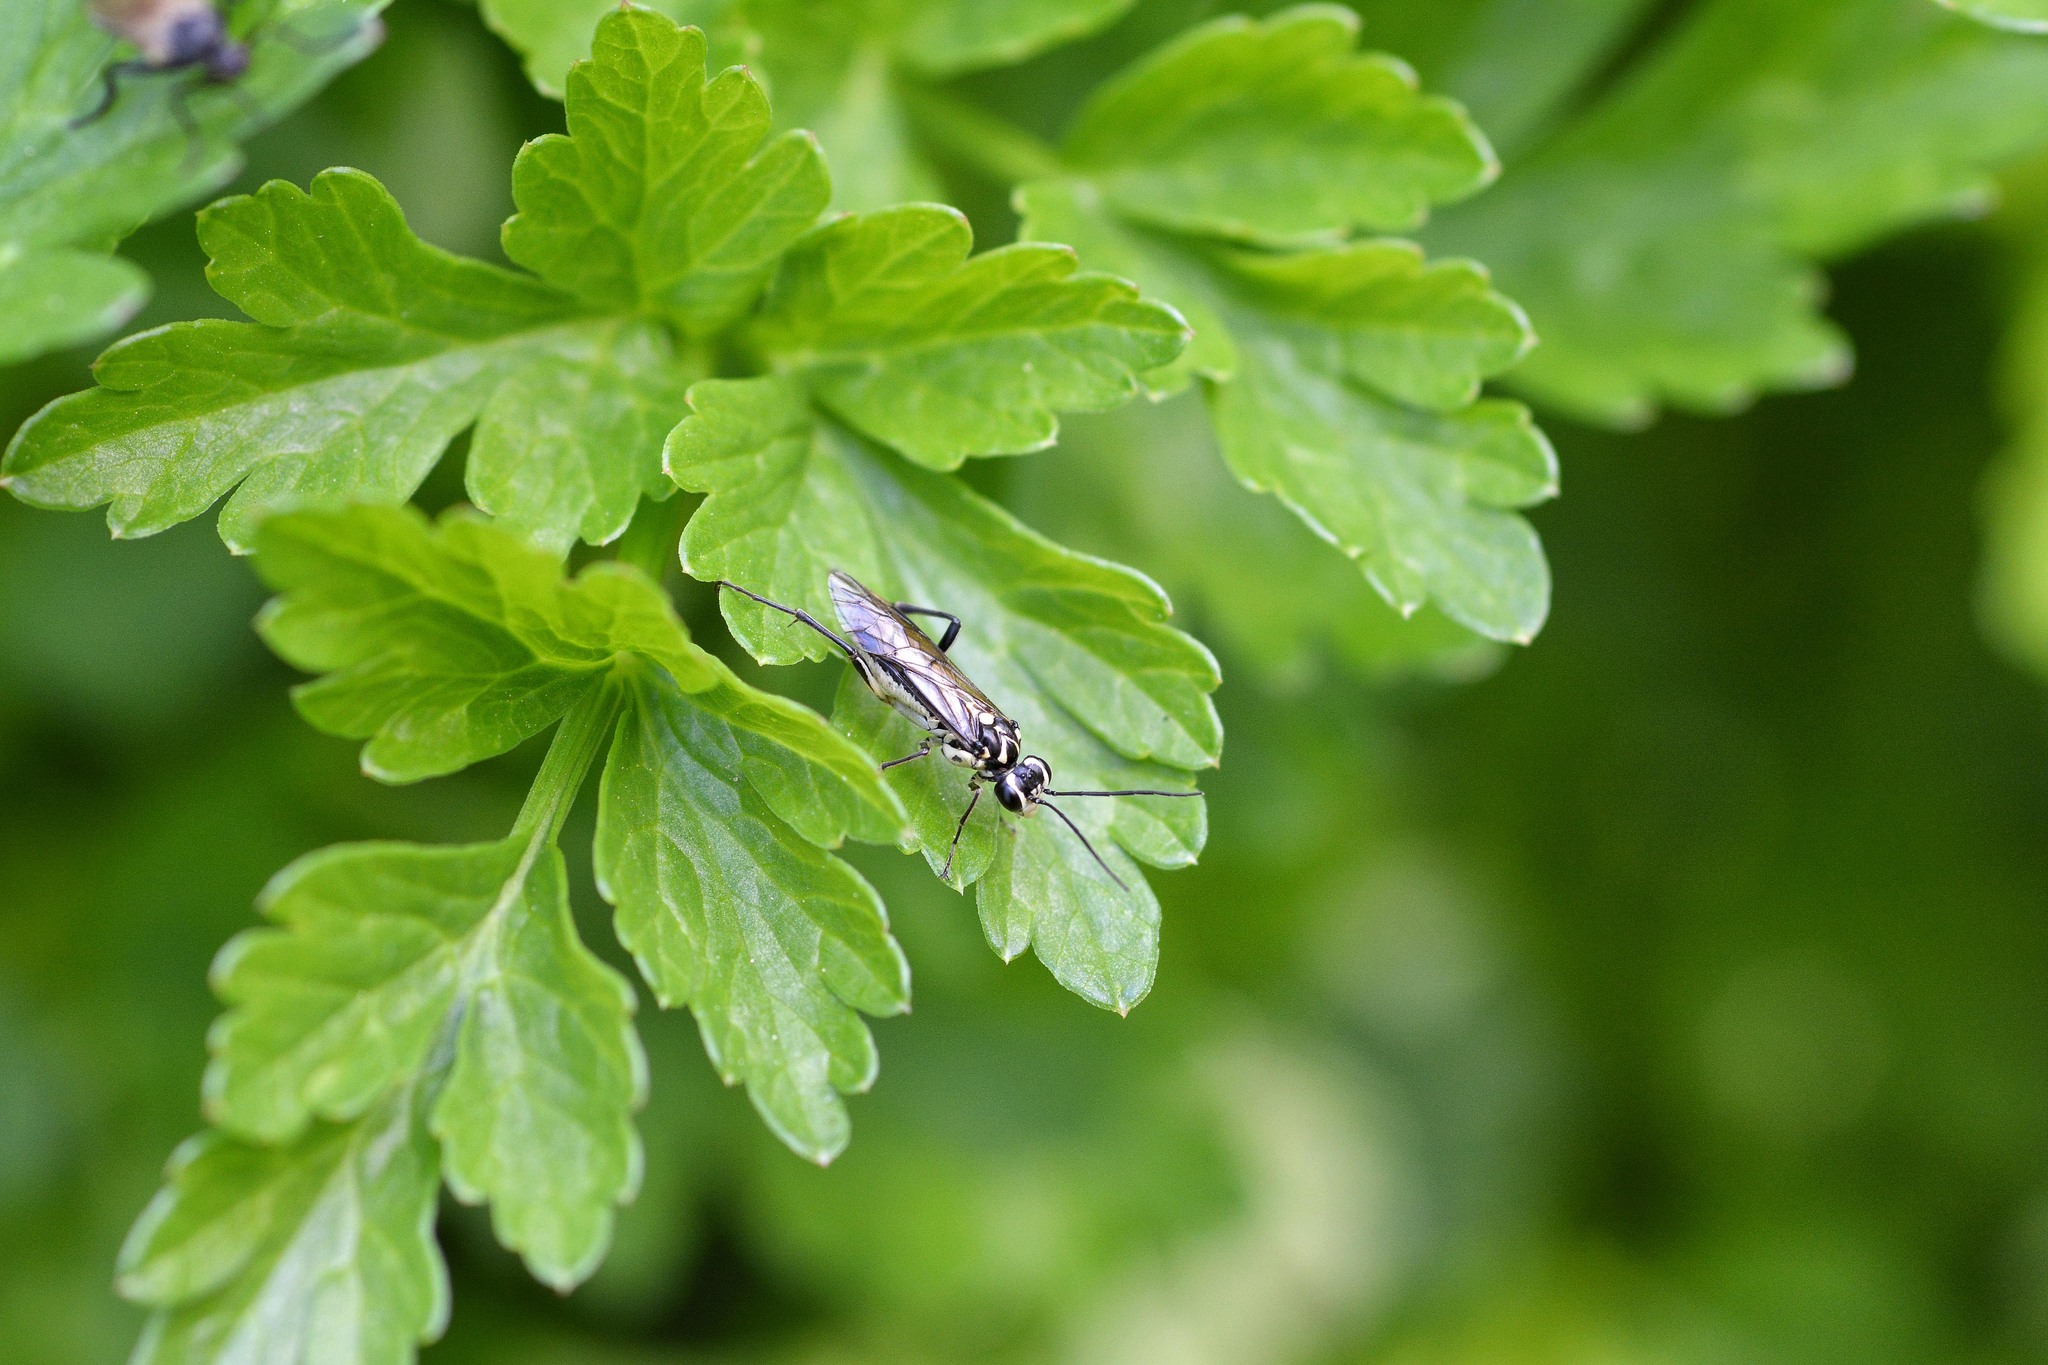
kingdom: Animalia
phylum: Arthropoda
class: Insecta
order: Hymenoptera
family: Tenthredinidae
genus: Pachyprotasis
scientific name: Pachyprotasis rapae
